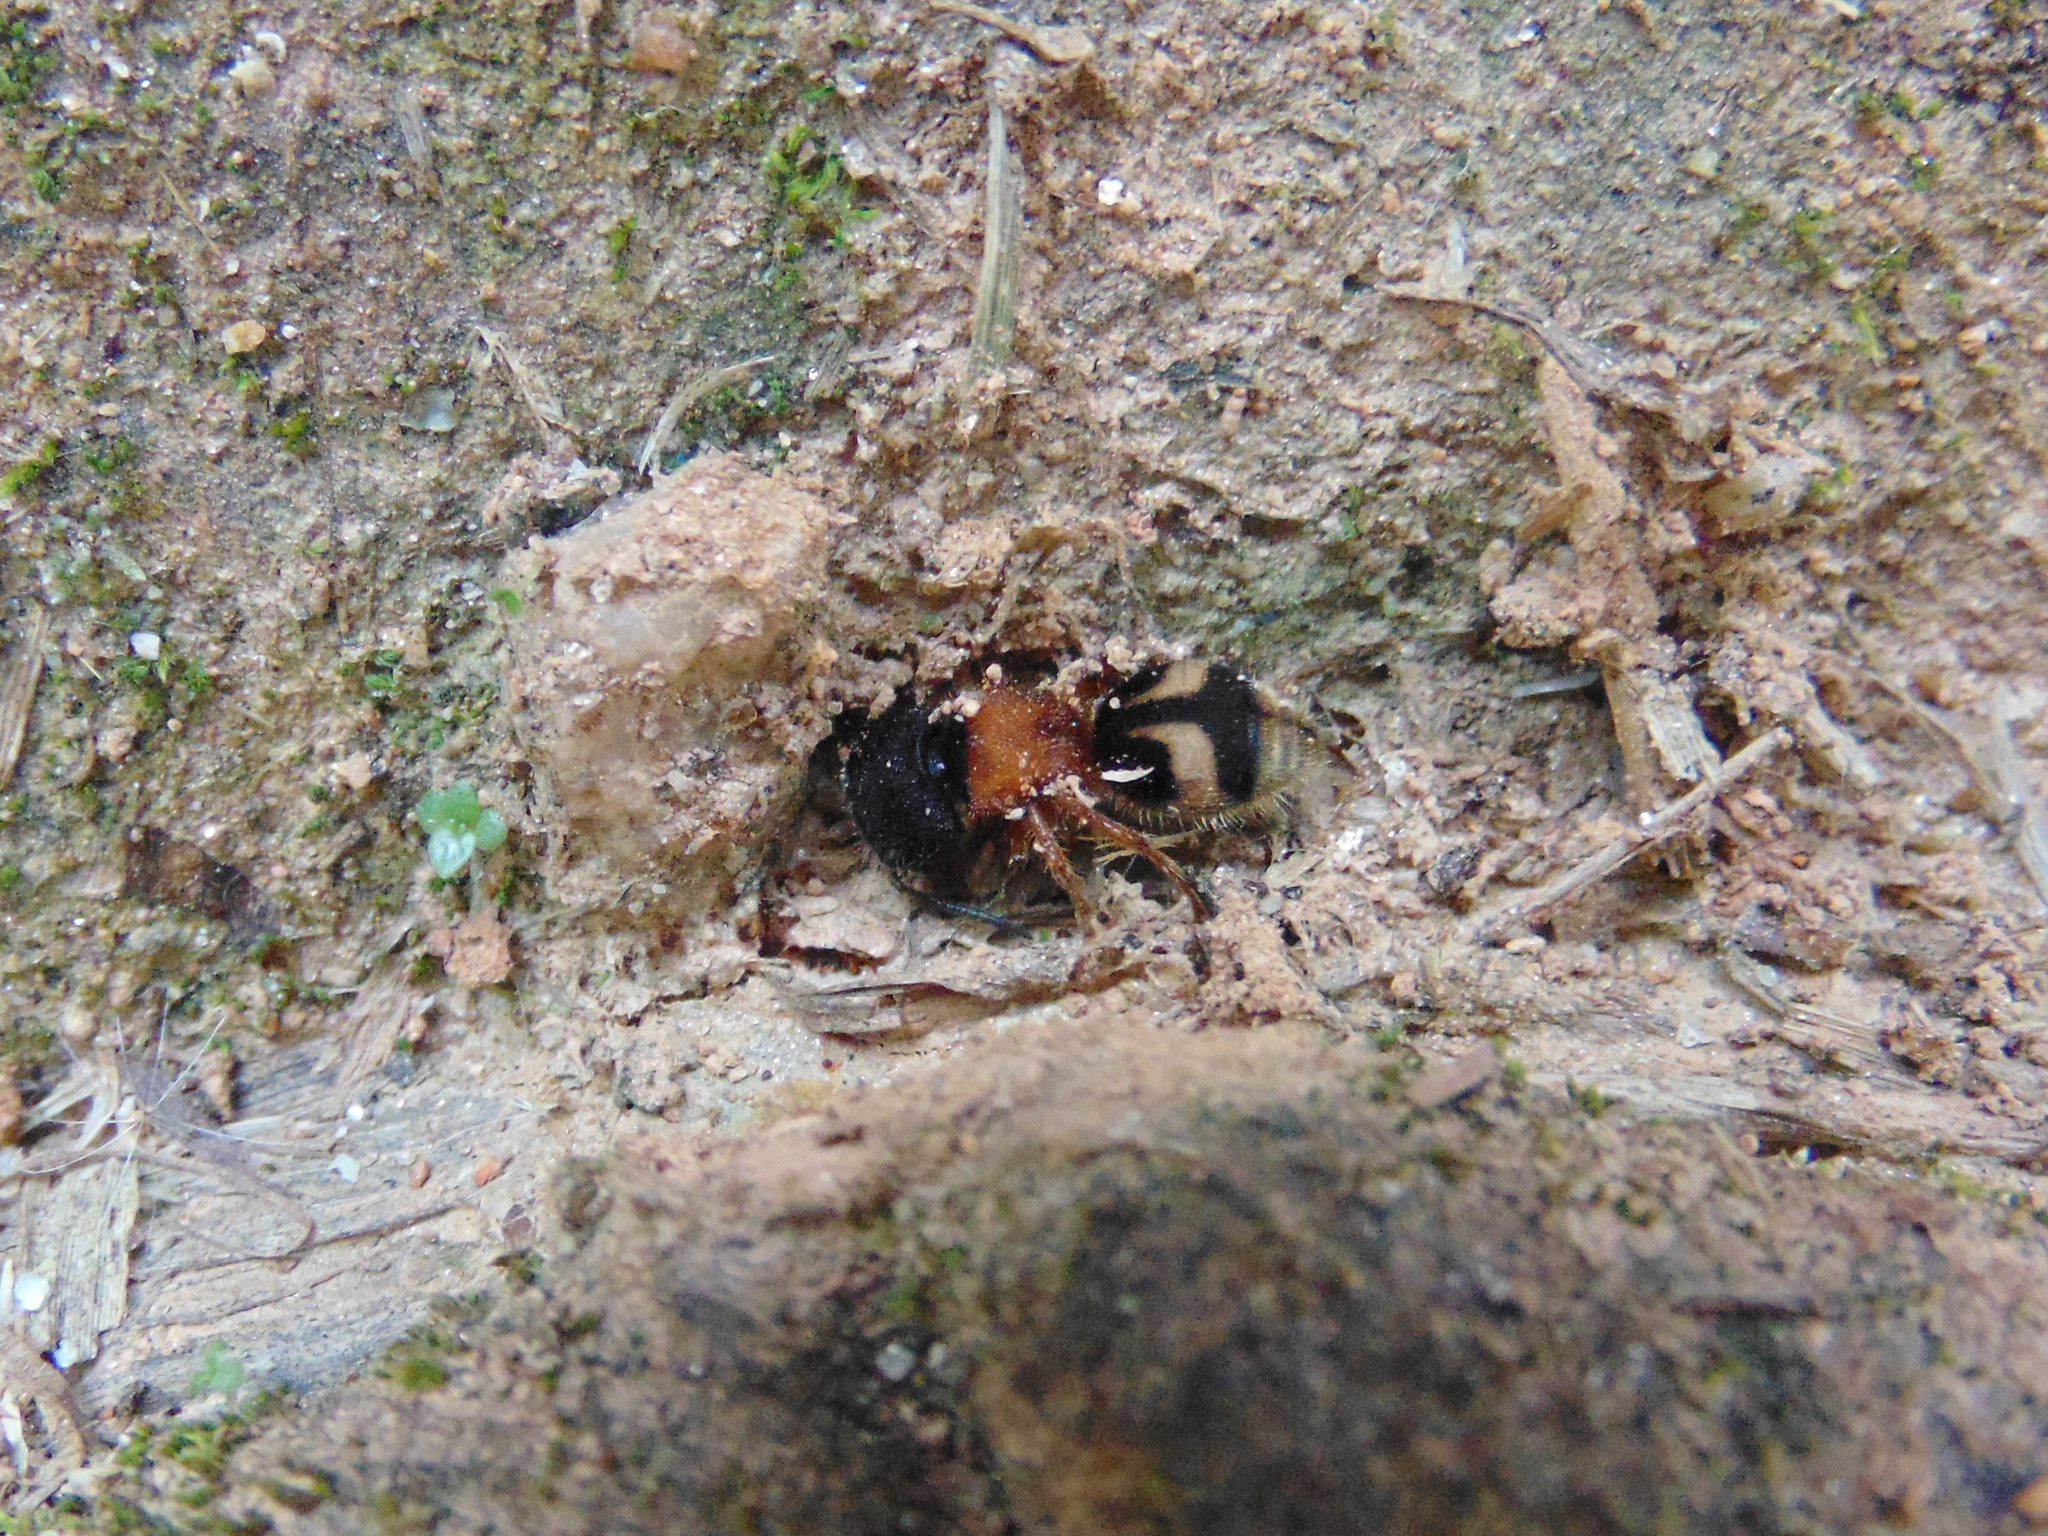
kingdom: Animalia
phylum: Arthropoda
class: Insecta
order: Hymenoptera
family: Mutillidae
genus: Pseudomethoca
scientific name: Pseudomethoca
